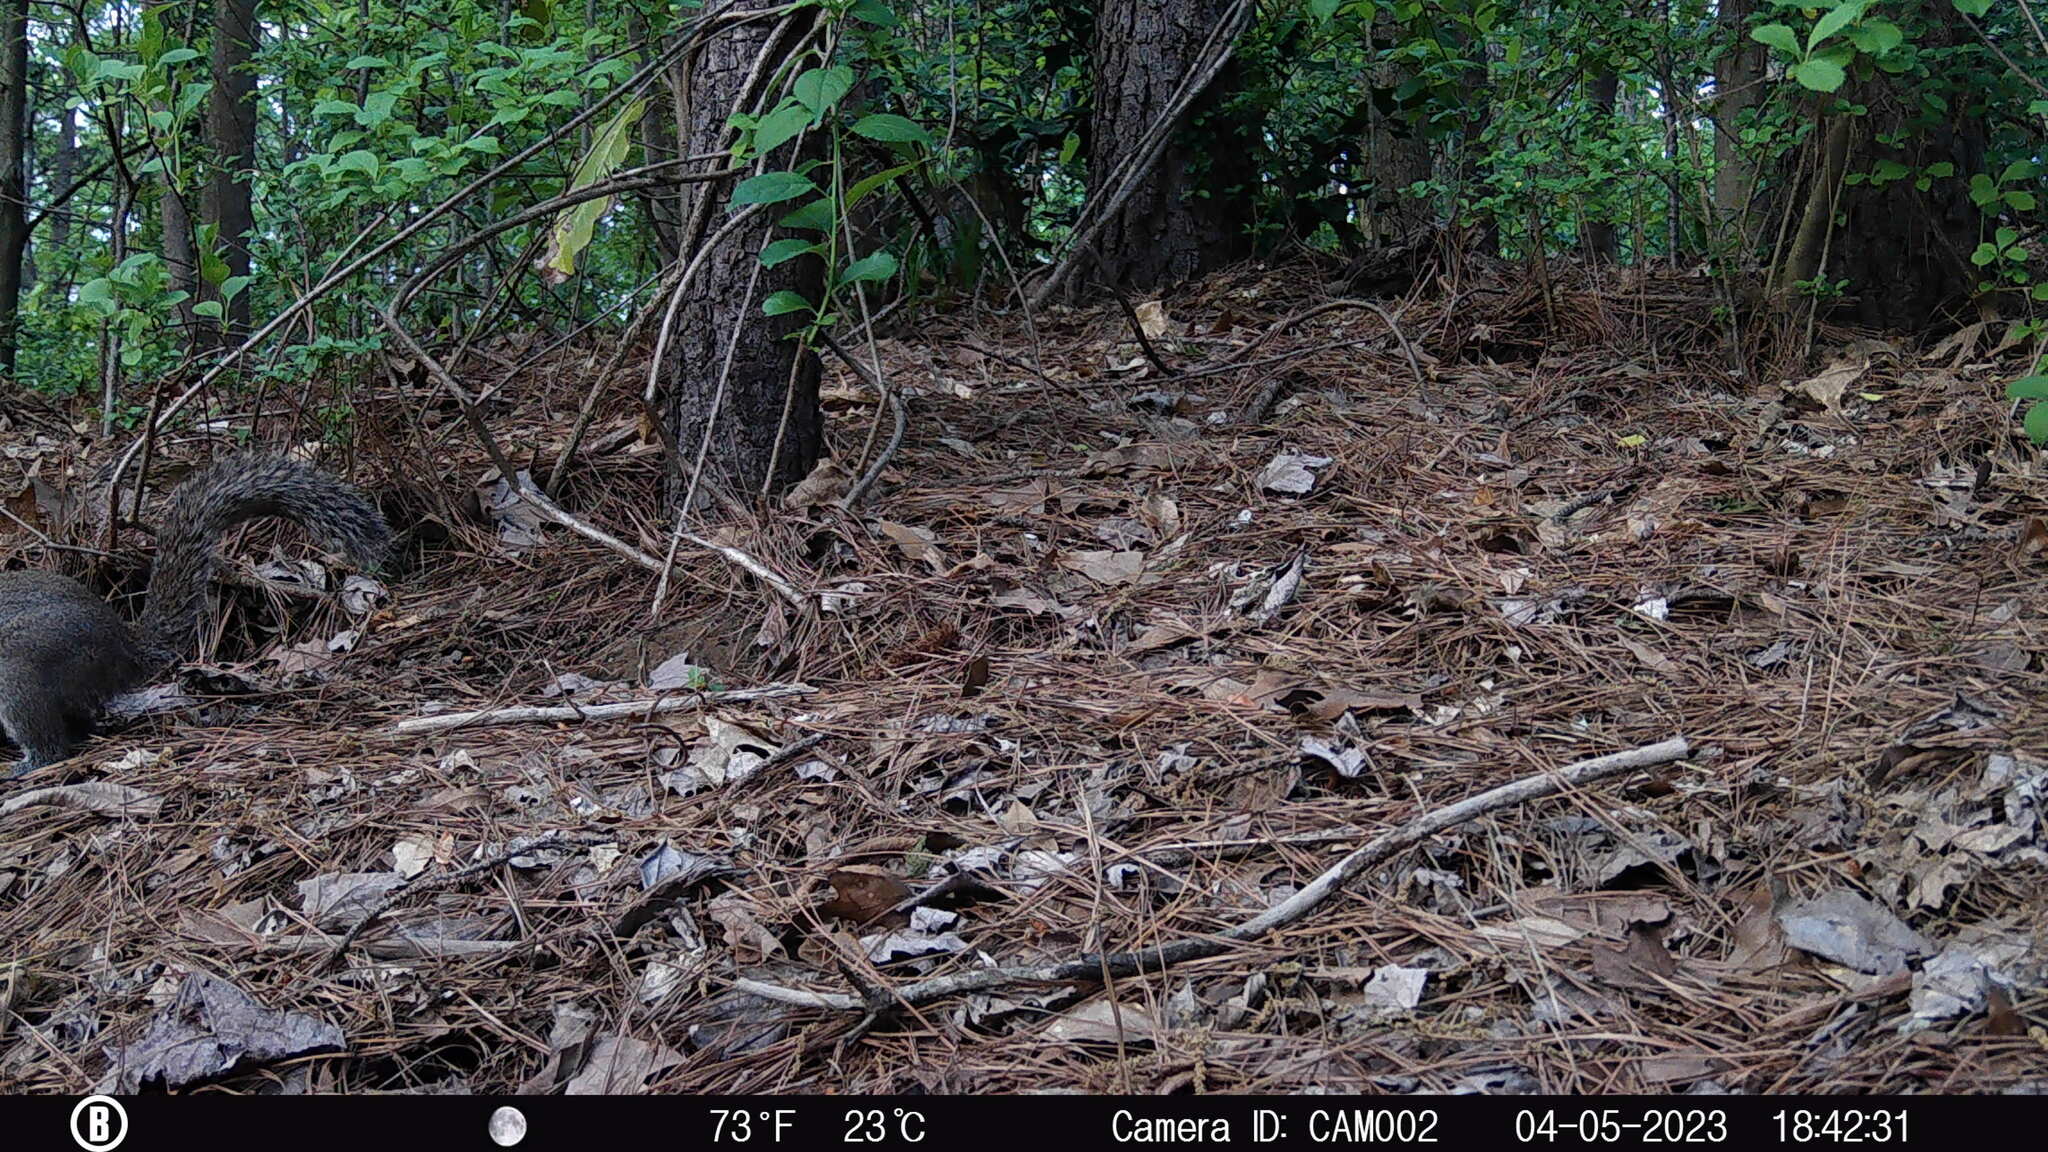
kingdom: Animalia
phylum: Chordata
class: Mammalia
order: Rodentia
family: Sciuridae
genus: Sciurus
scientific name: Sciurus carolinensis
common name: Eastern gray squirrel
